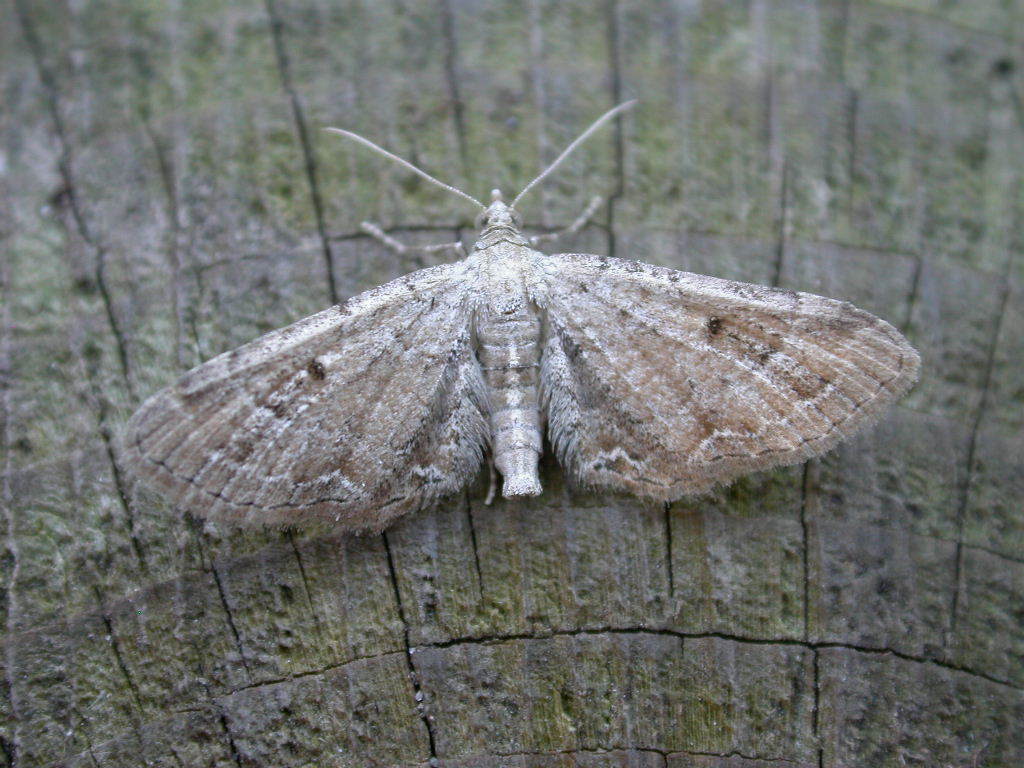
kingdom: Animalia
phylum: Arthropoda
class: Insecta
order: Lepidoptera
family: Geometridae
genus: Eupithecia
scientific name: Eupithecia simpliciata
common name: Plain pug
